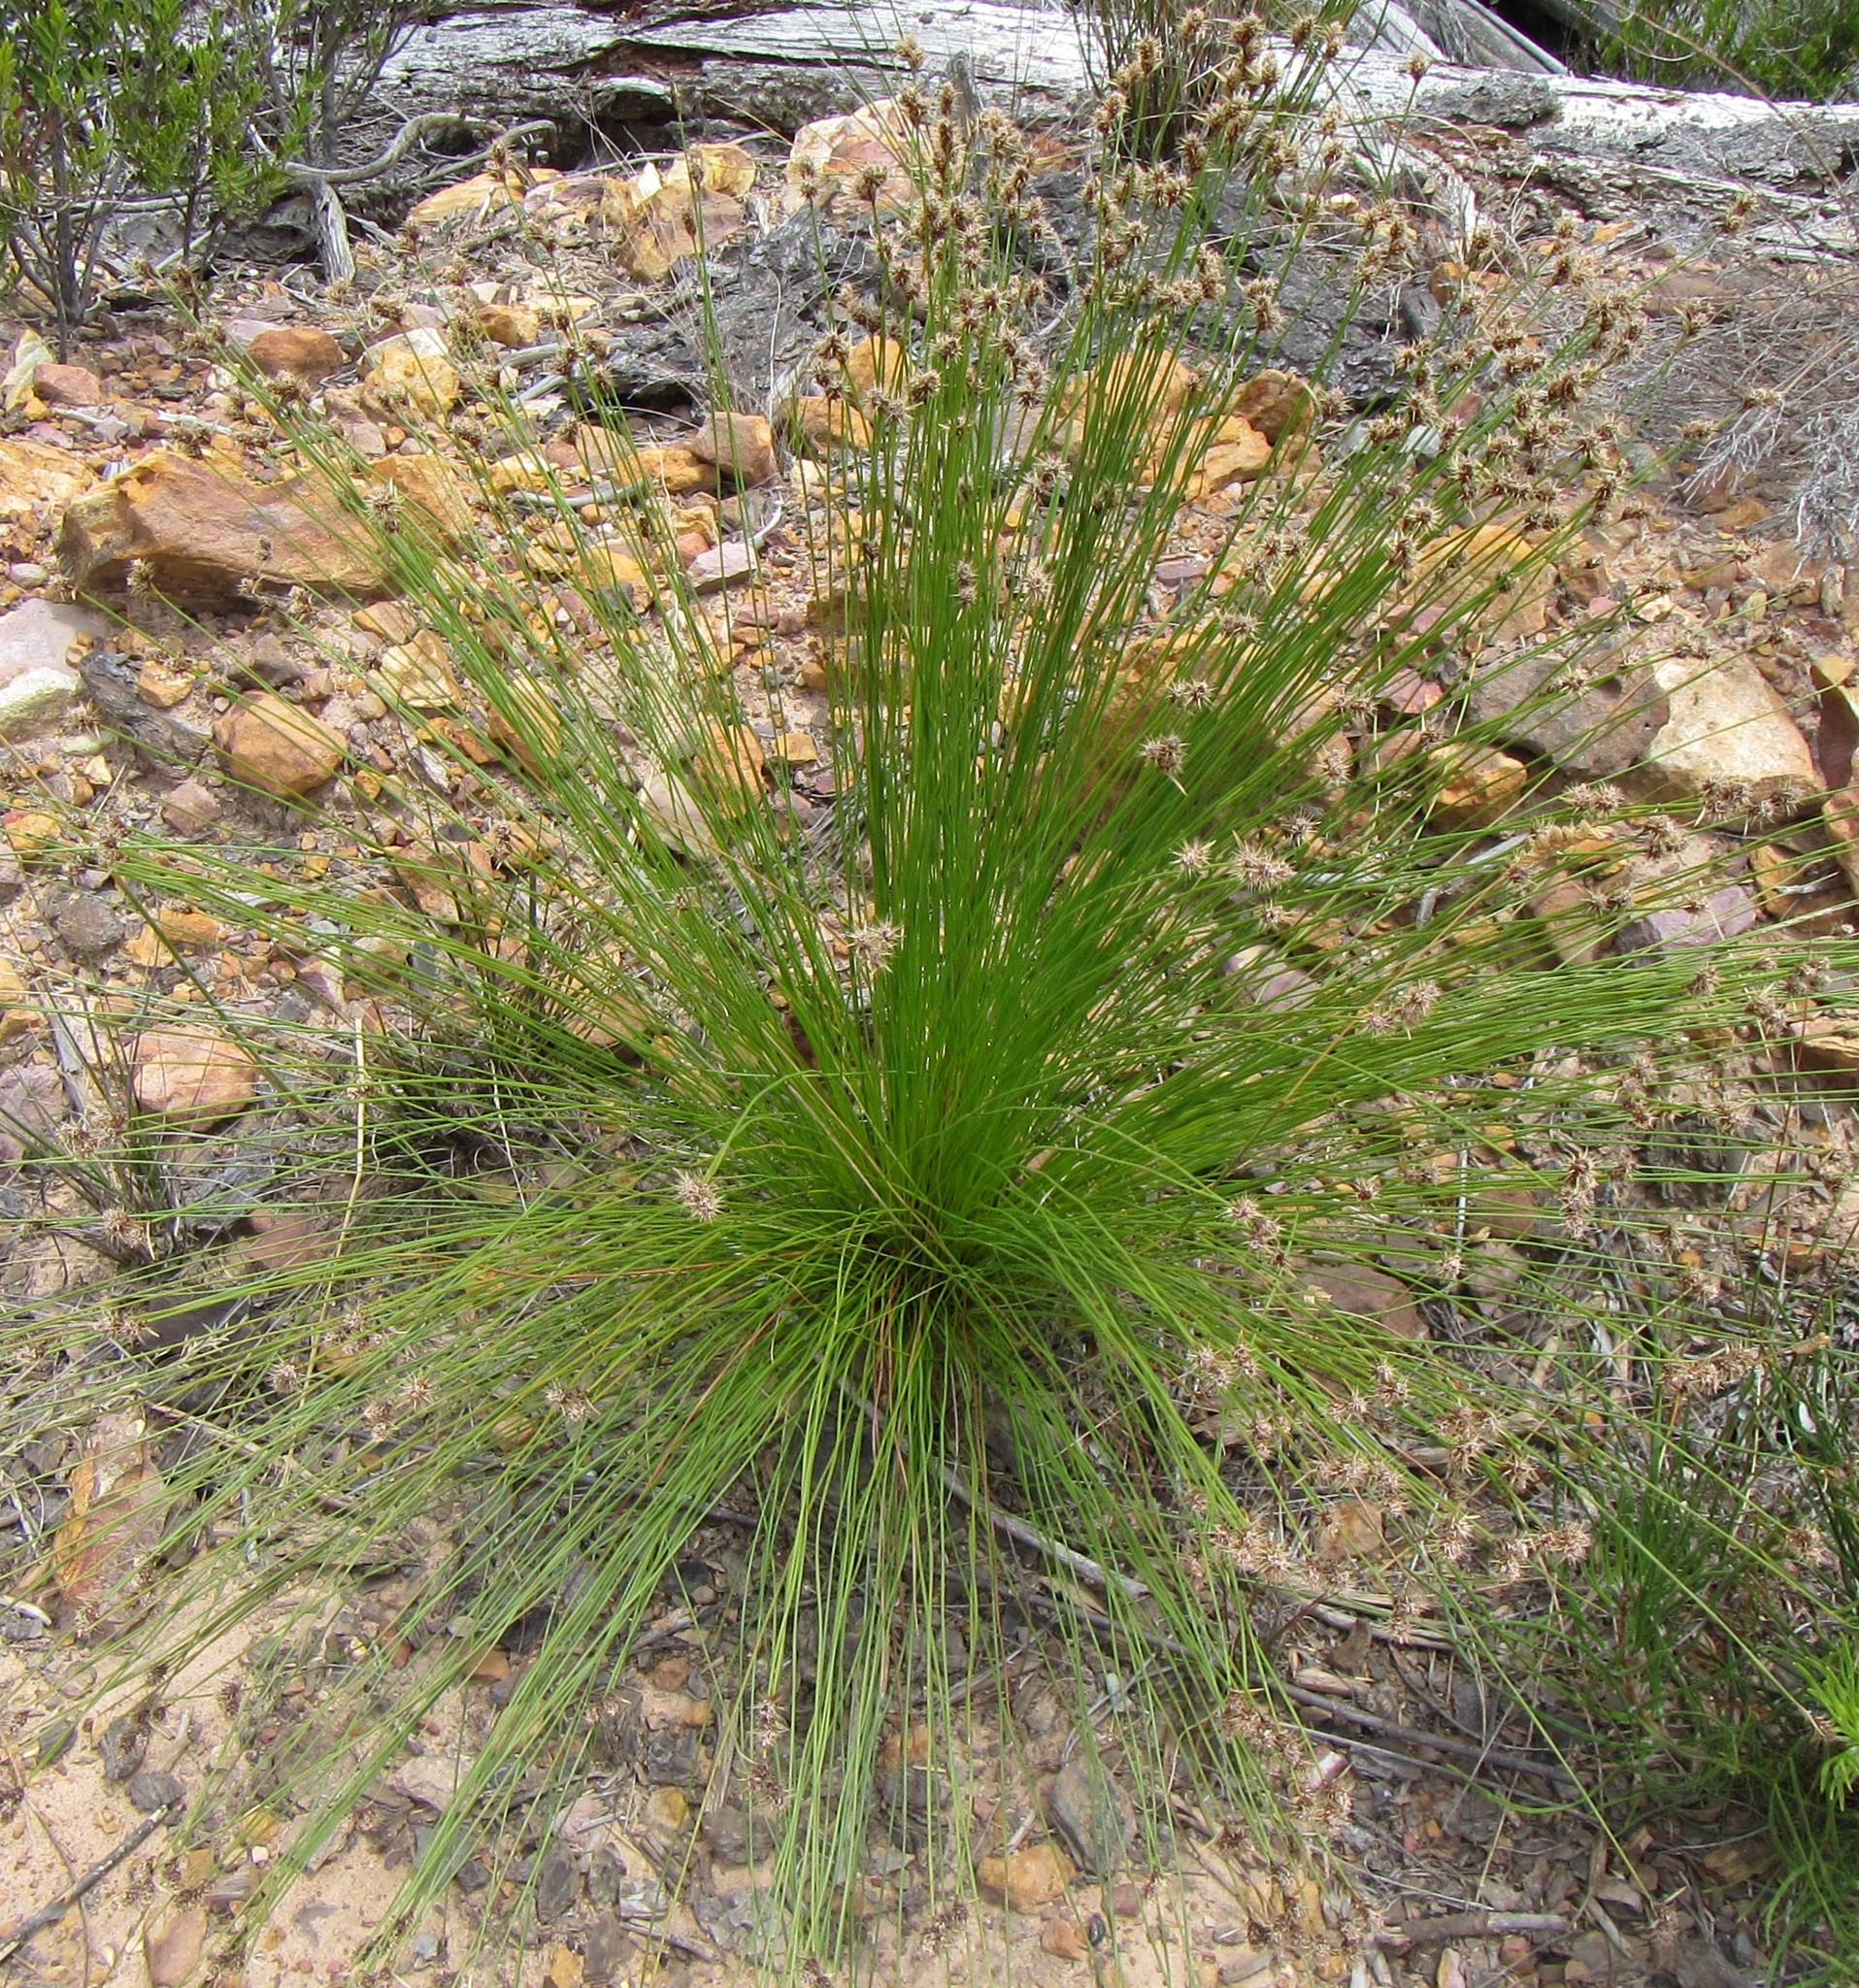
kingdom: Plantae
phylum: Tracheophyta
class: Liliopsida
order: Poales
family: Restionaceae
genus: Hypodiscus
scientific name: Hypodiscus alboaristatus
